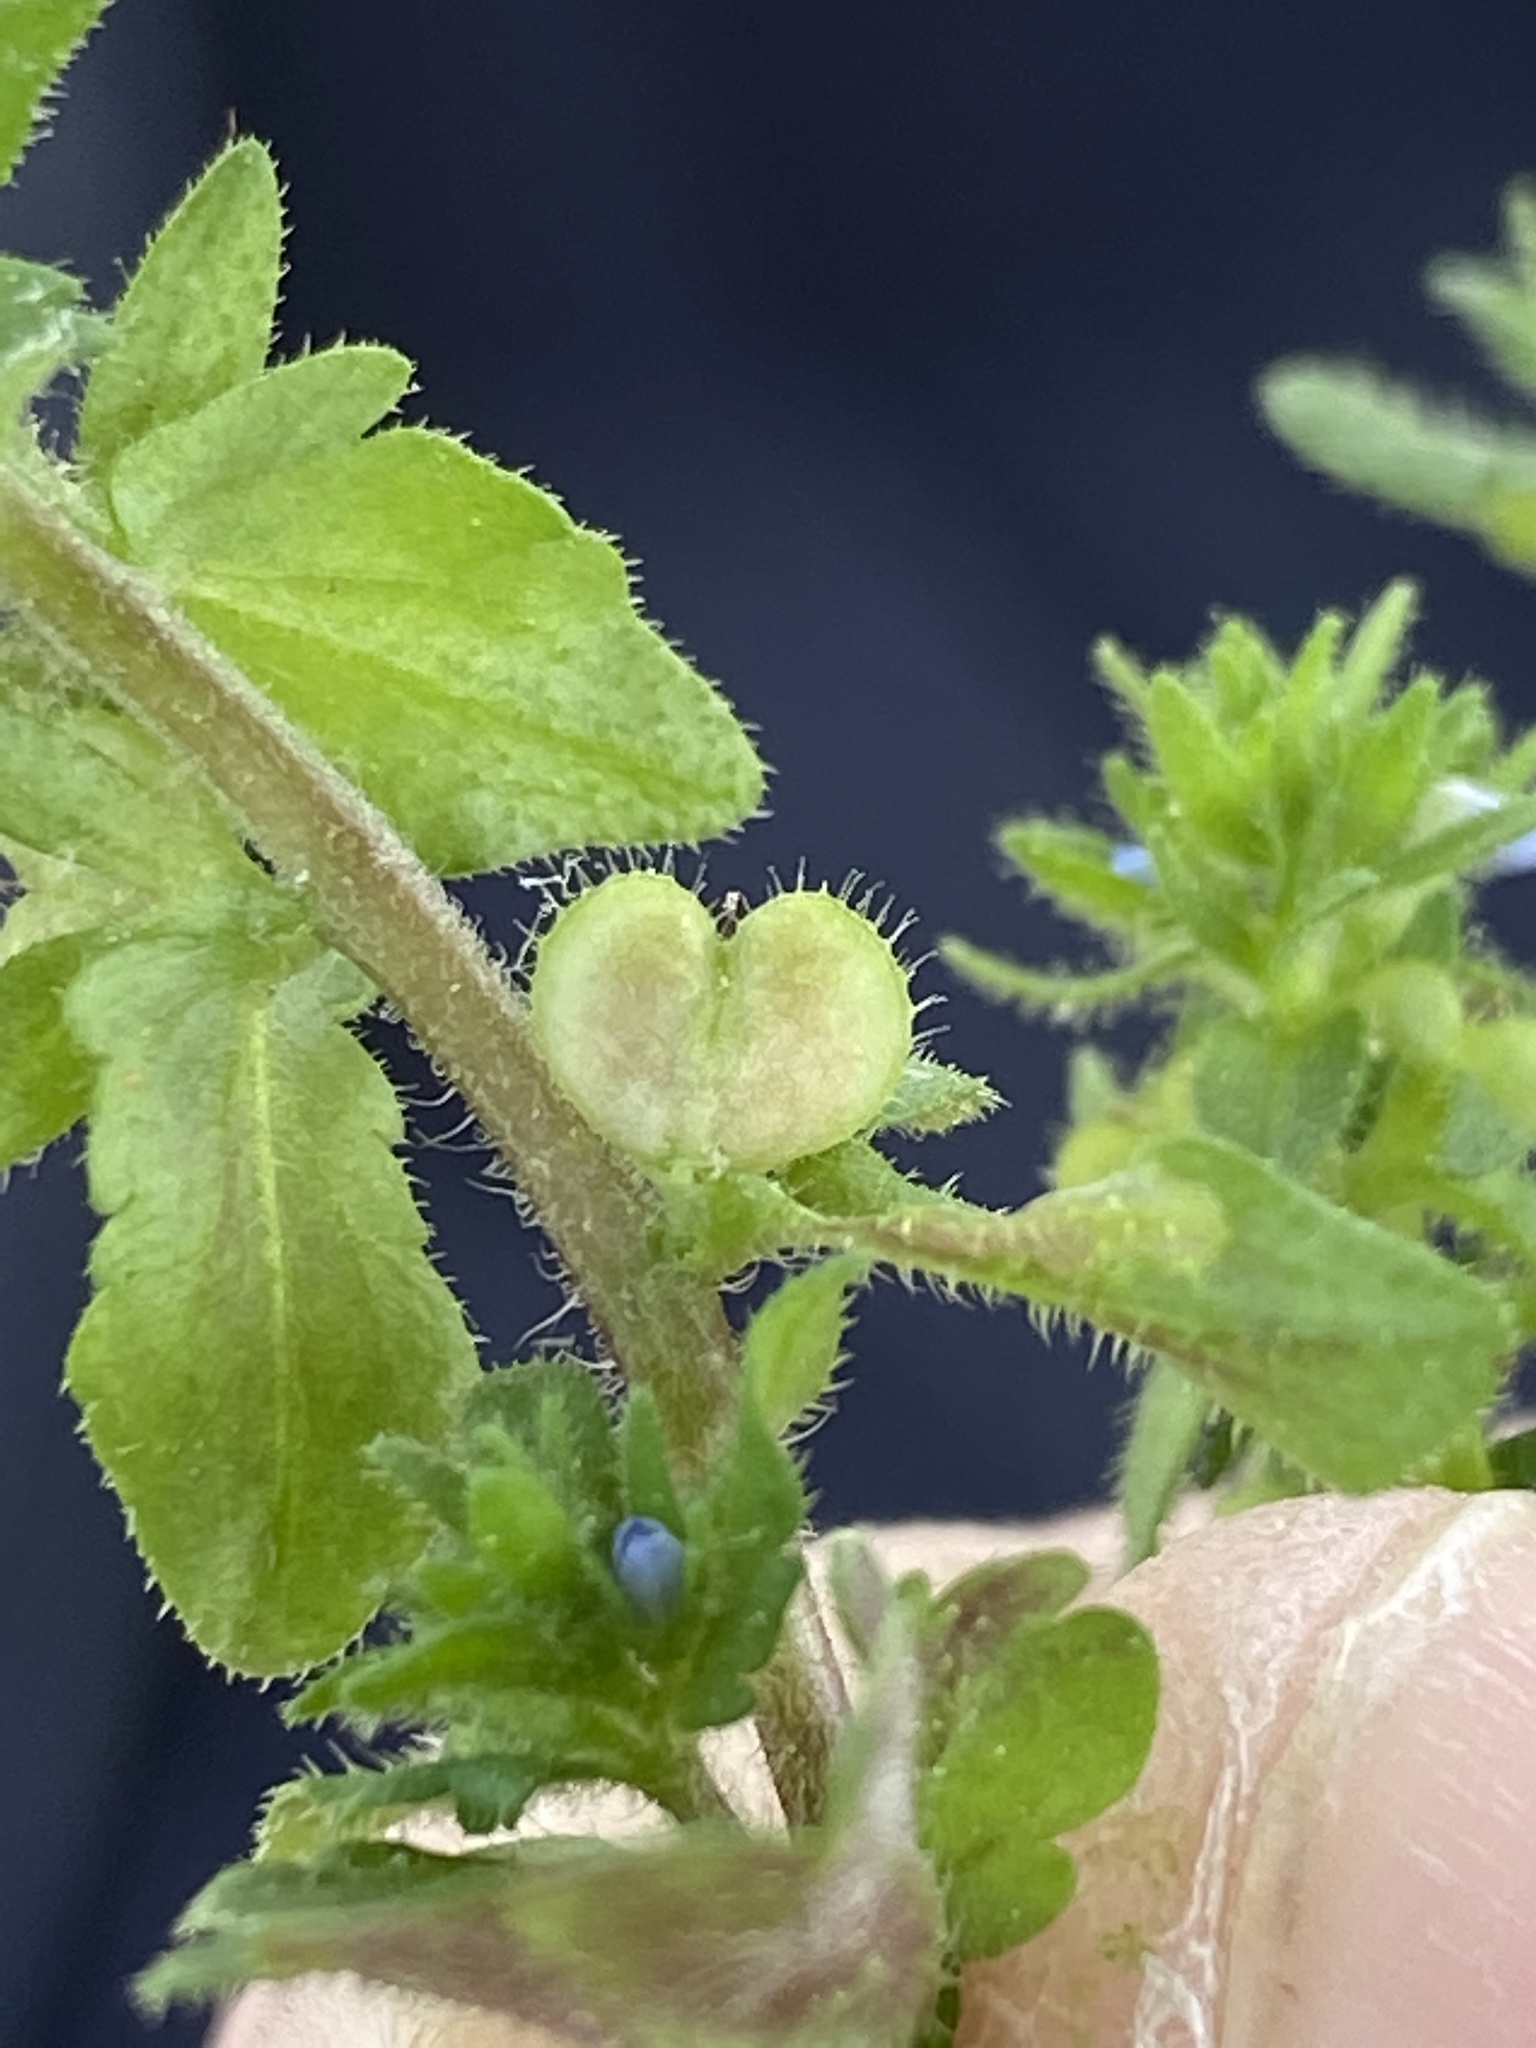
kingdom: Plantae
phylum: Tracheophyta
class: Magnoliopsida
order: Lamiales
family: Plantaginaceae
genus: Veronica
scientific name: Veronica arvensis
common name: Corn speedwell
